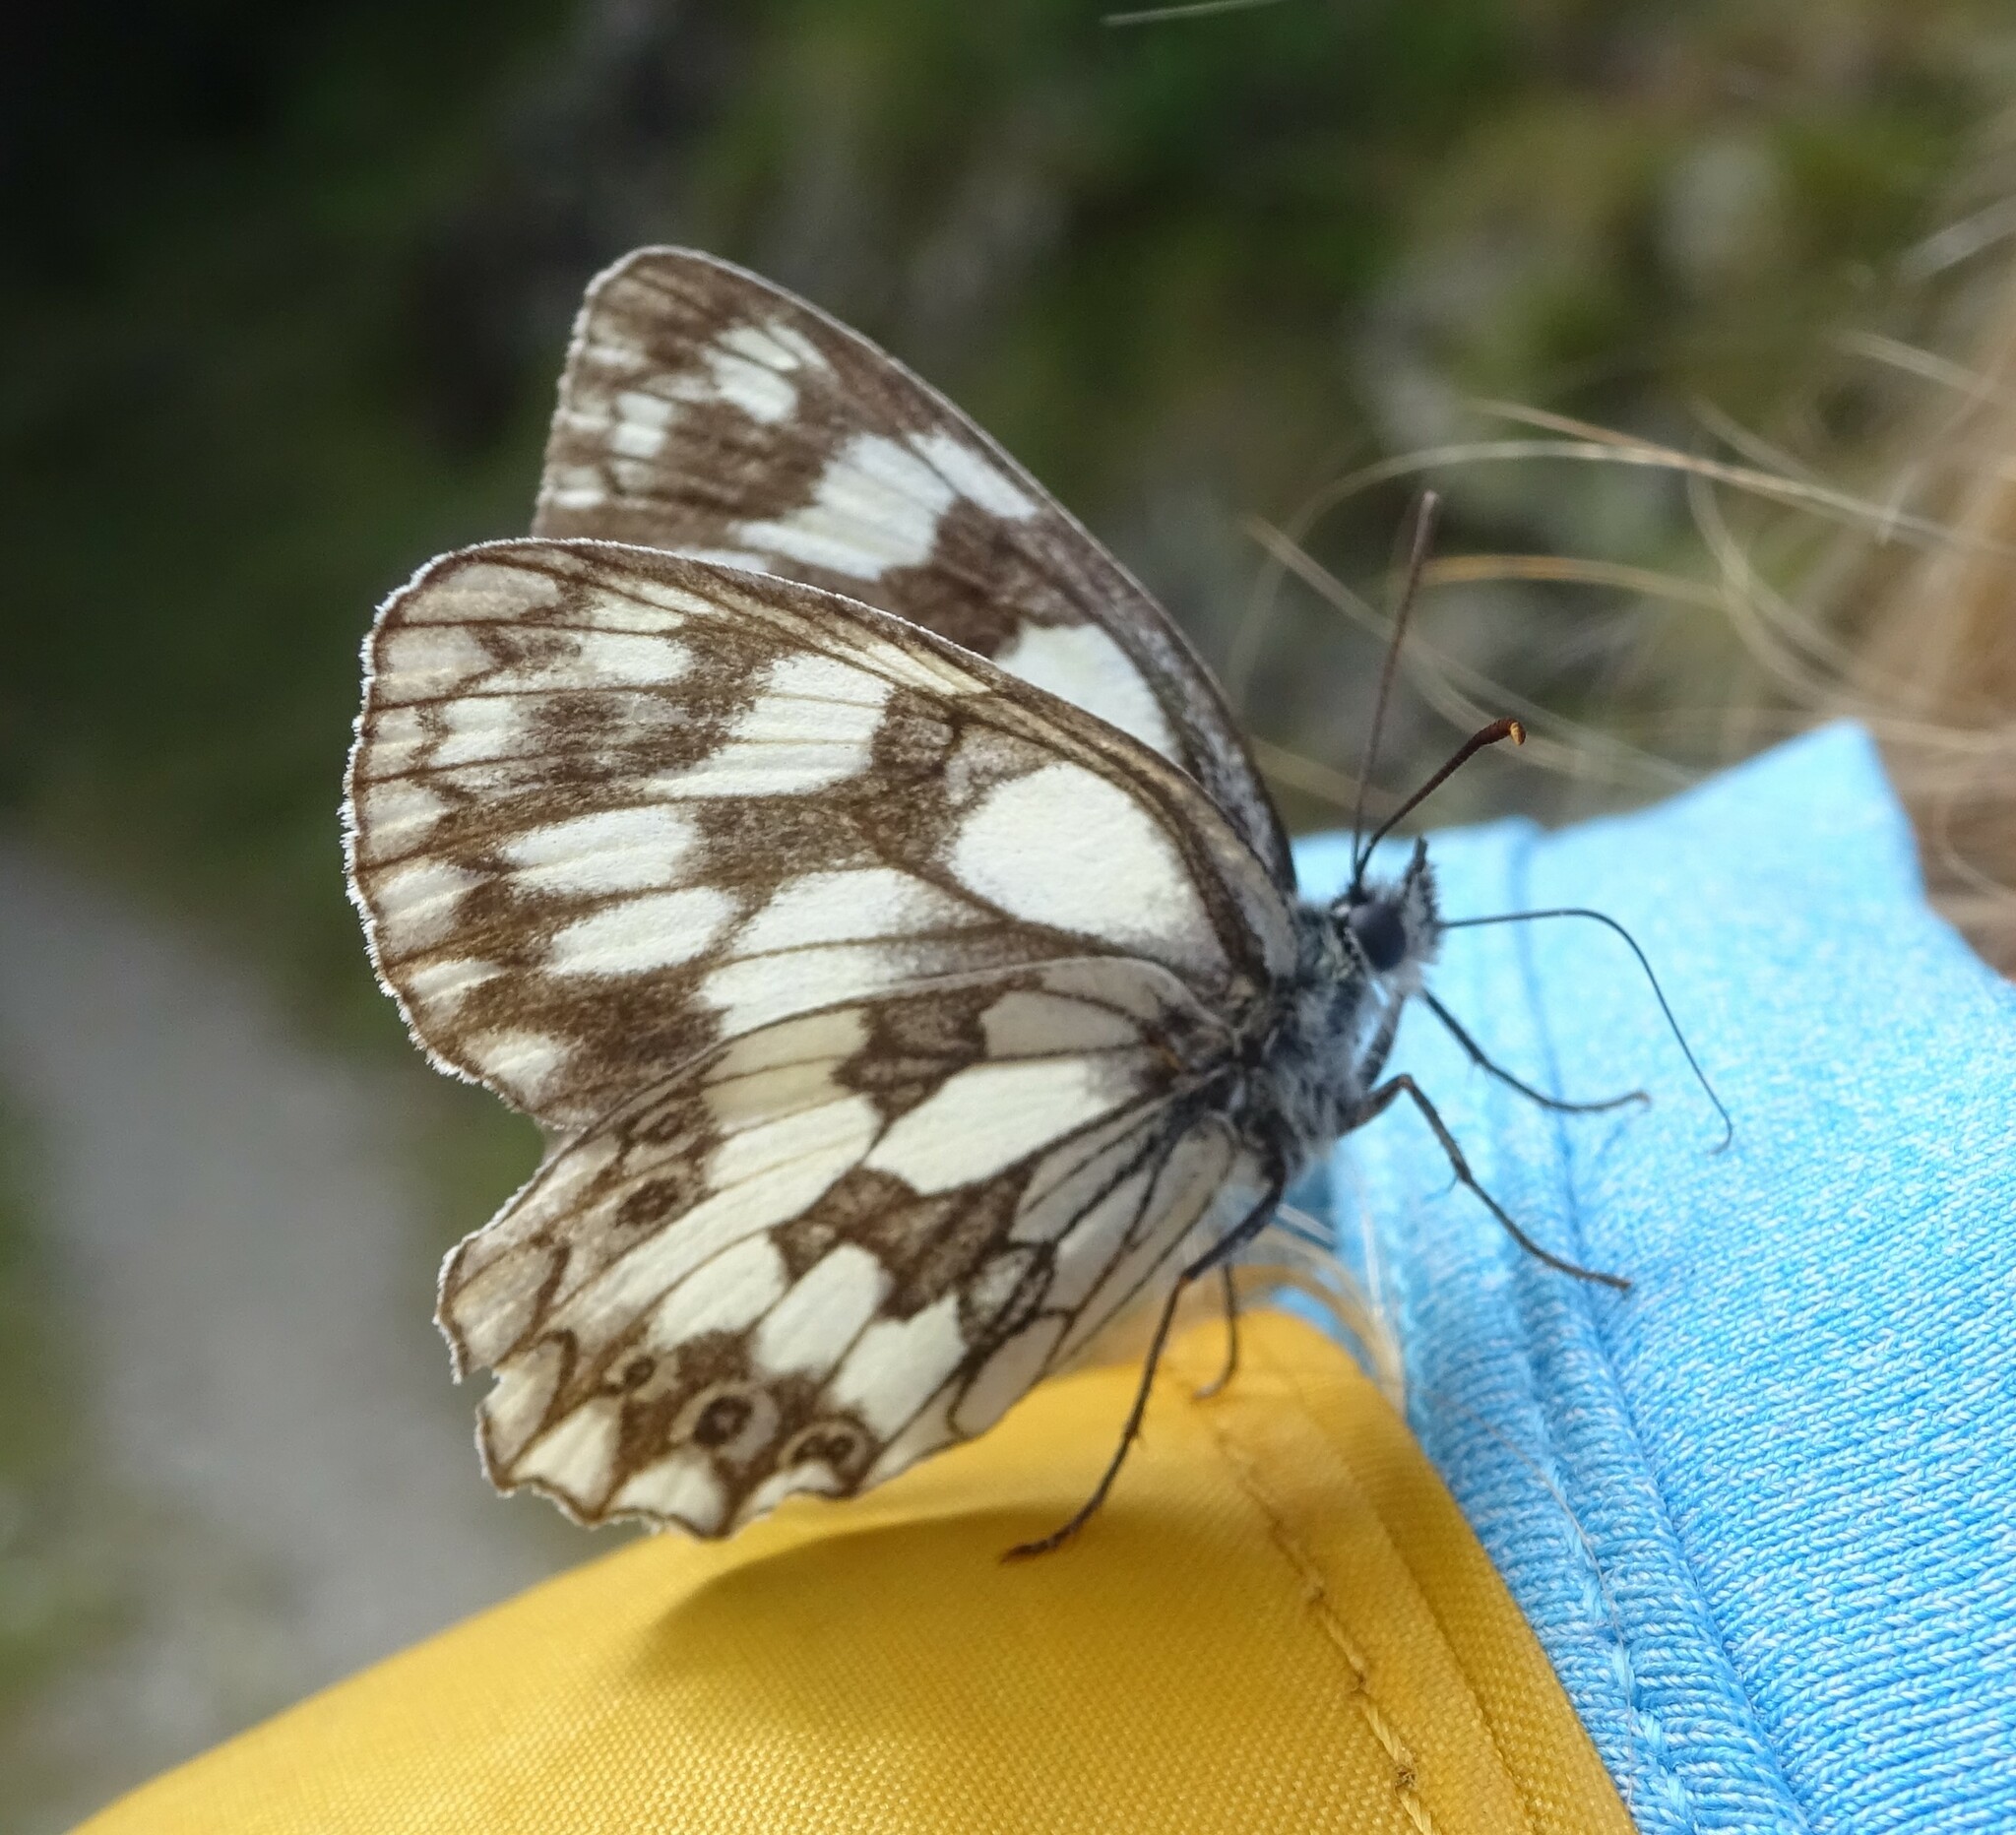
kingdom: Animalia
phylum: Arthropoda
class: Insecta
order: Lepidoptera
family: Nymphalidae
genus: Melanargia
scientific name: Melanargia galathea
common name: Marbled white
